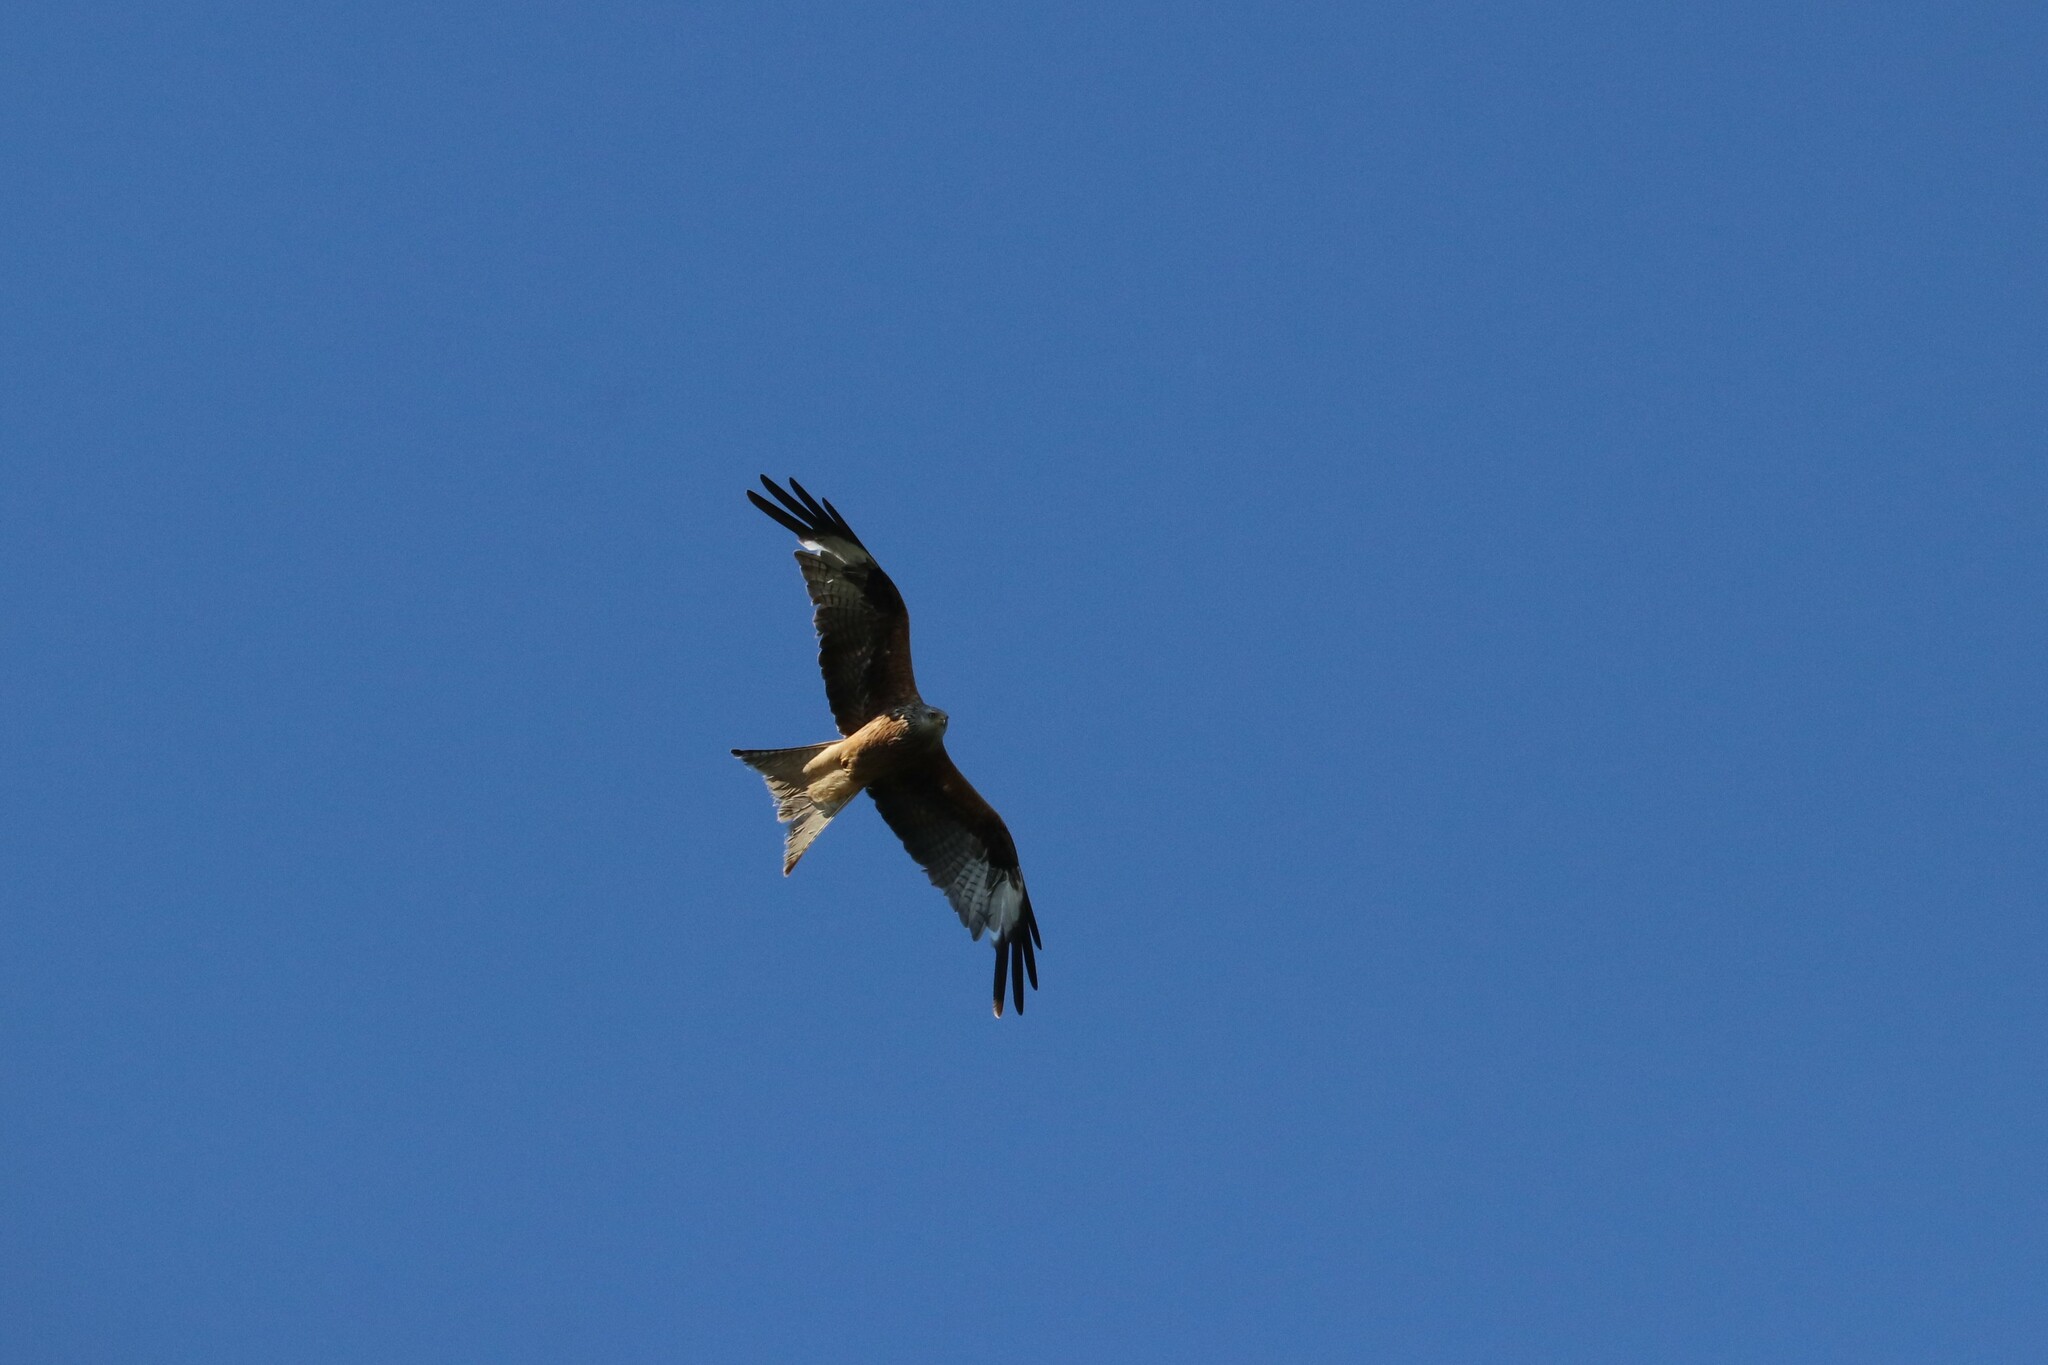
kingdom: Animalia
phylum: Chordata
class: Aves
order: Accipitriformes
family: Accipitridae
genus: Milvus
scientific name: Milvus milvus
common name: Red kite
